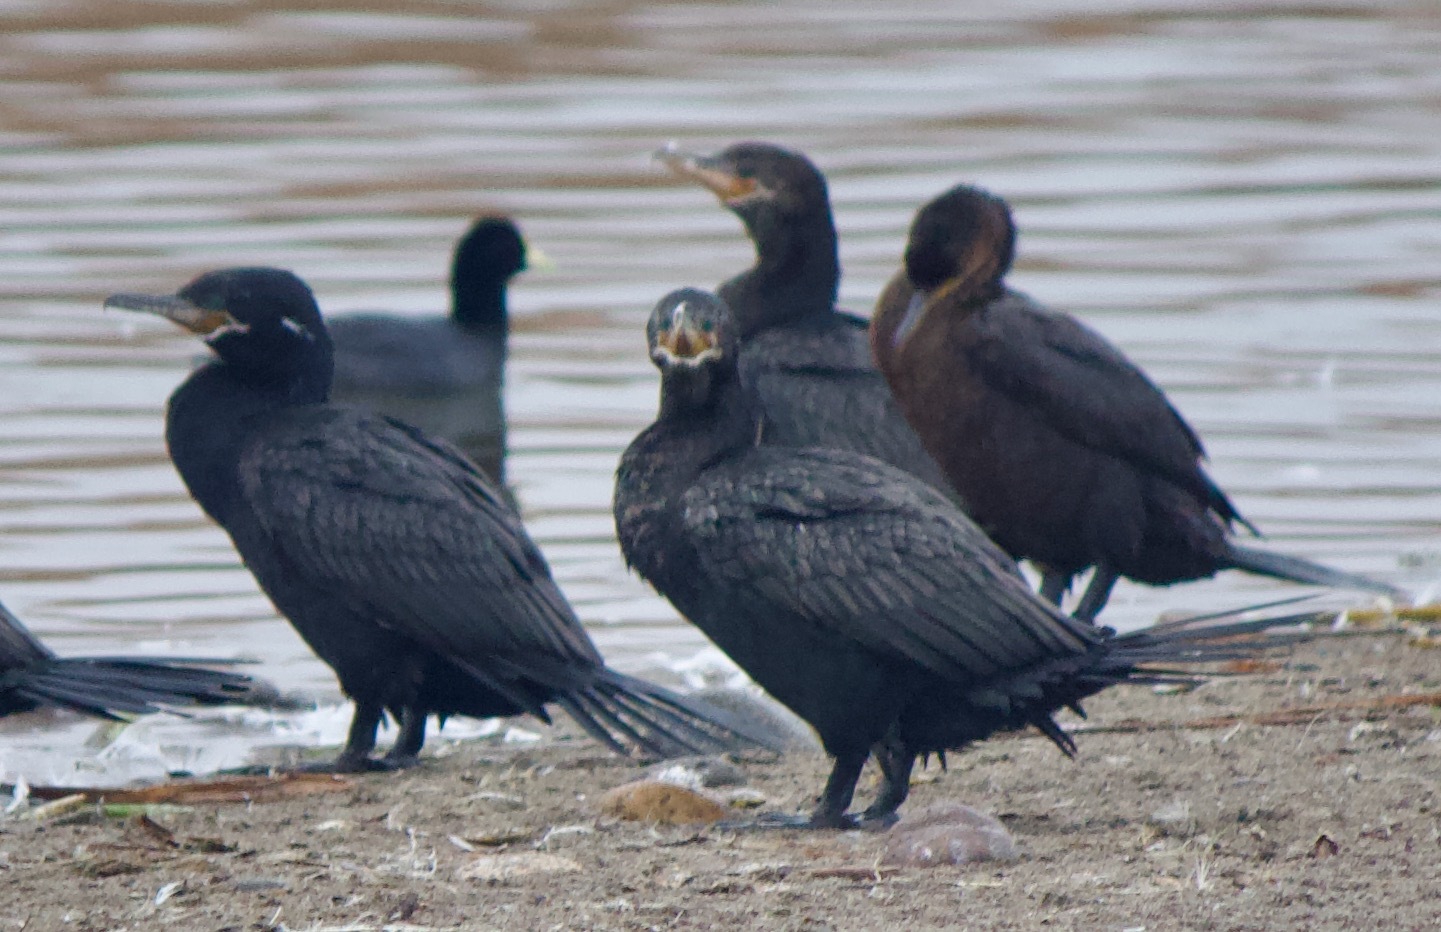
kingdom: Animalia
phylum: Chordata
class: Aves
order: Suliformes
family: Phalacrocoracidae
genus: Phalacrocorax
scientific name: Phalacrocorax brasilianus
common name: Neotropic cormorant
